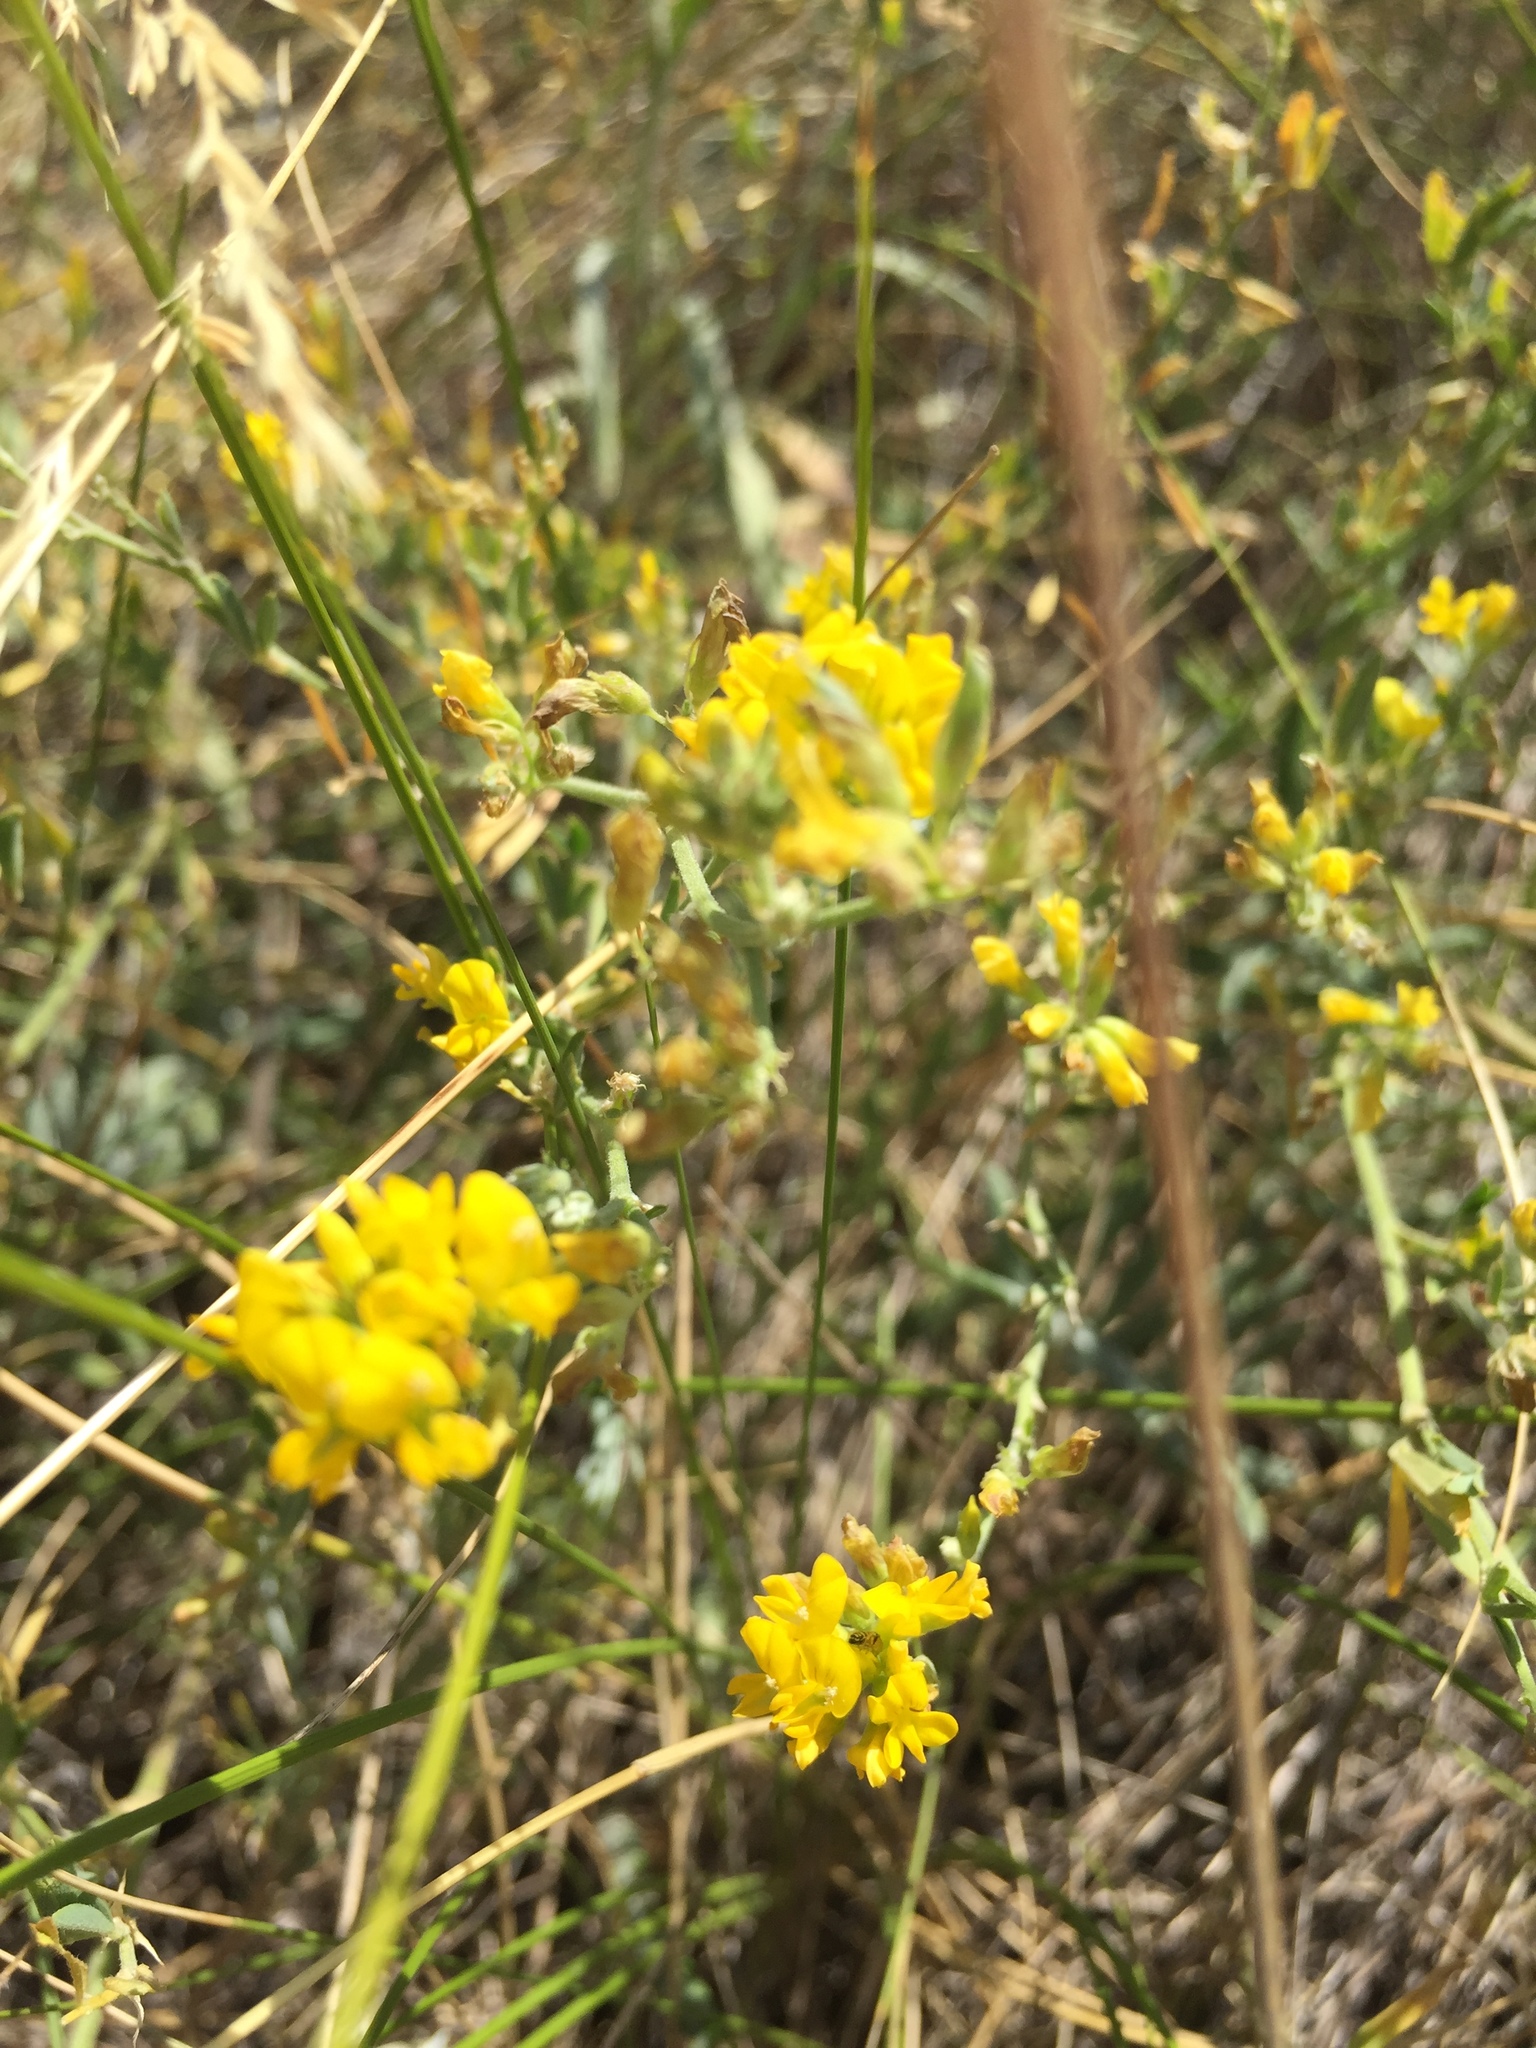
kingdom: Plantae
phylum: Tracheophyta
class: Magnoliopsida
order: Fabales
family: Fabaceae
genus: Medicago
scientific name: Medicago falcata
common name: Sickle medick
